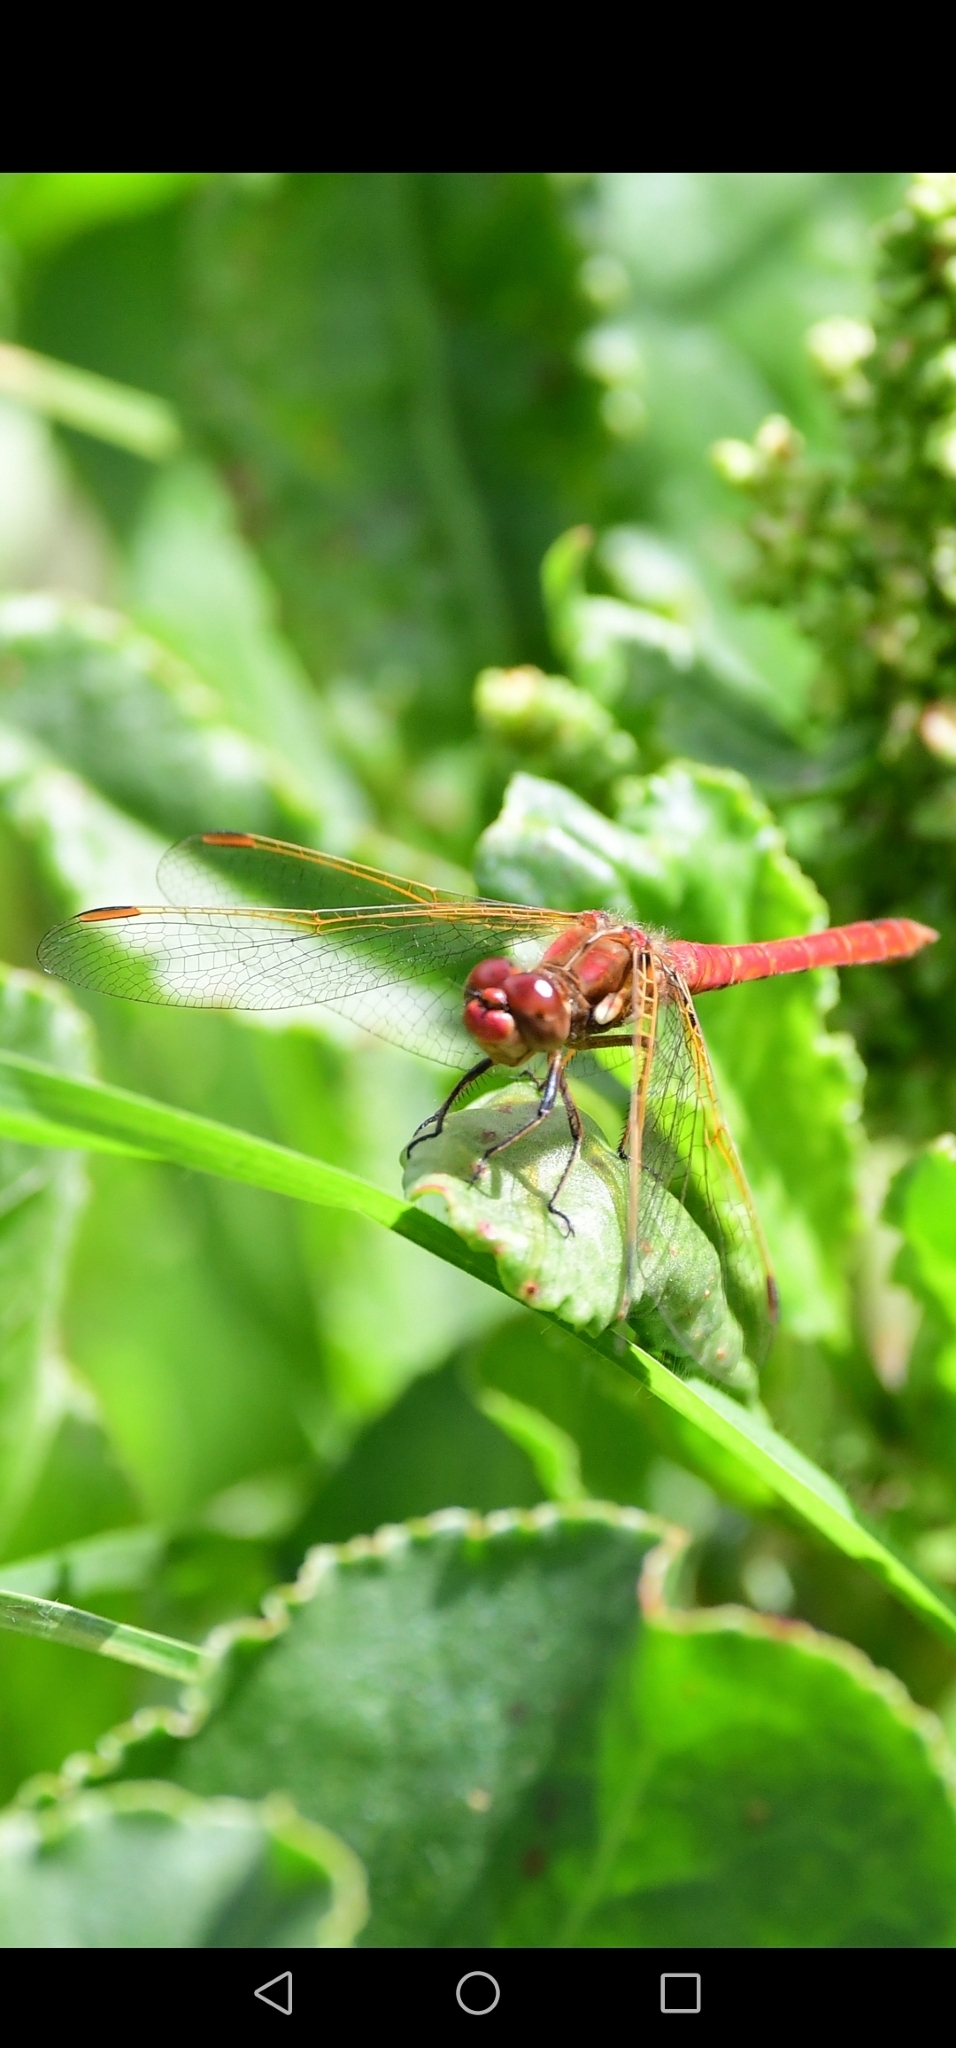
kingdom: Animalia
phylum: Arthropoda
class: Insecta
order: Odonata
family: Libellulidae
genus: Sympetrum
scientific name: Sympetrum gilvum
